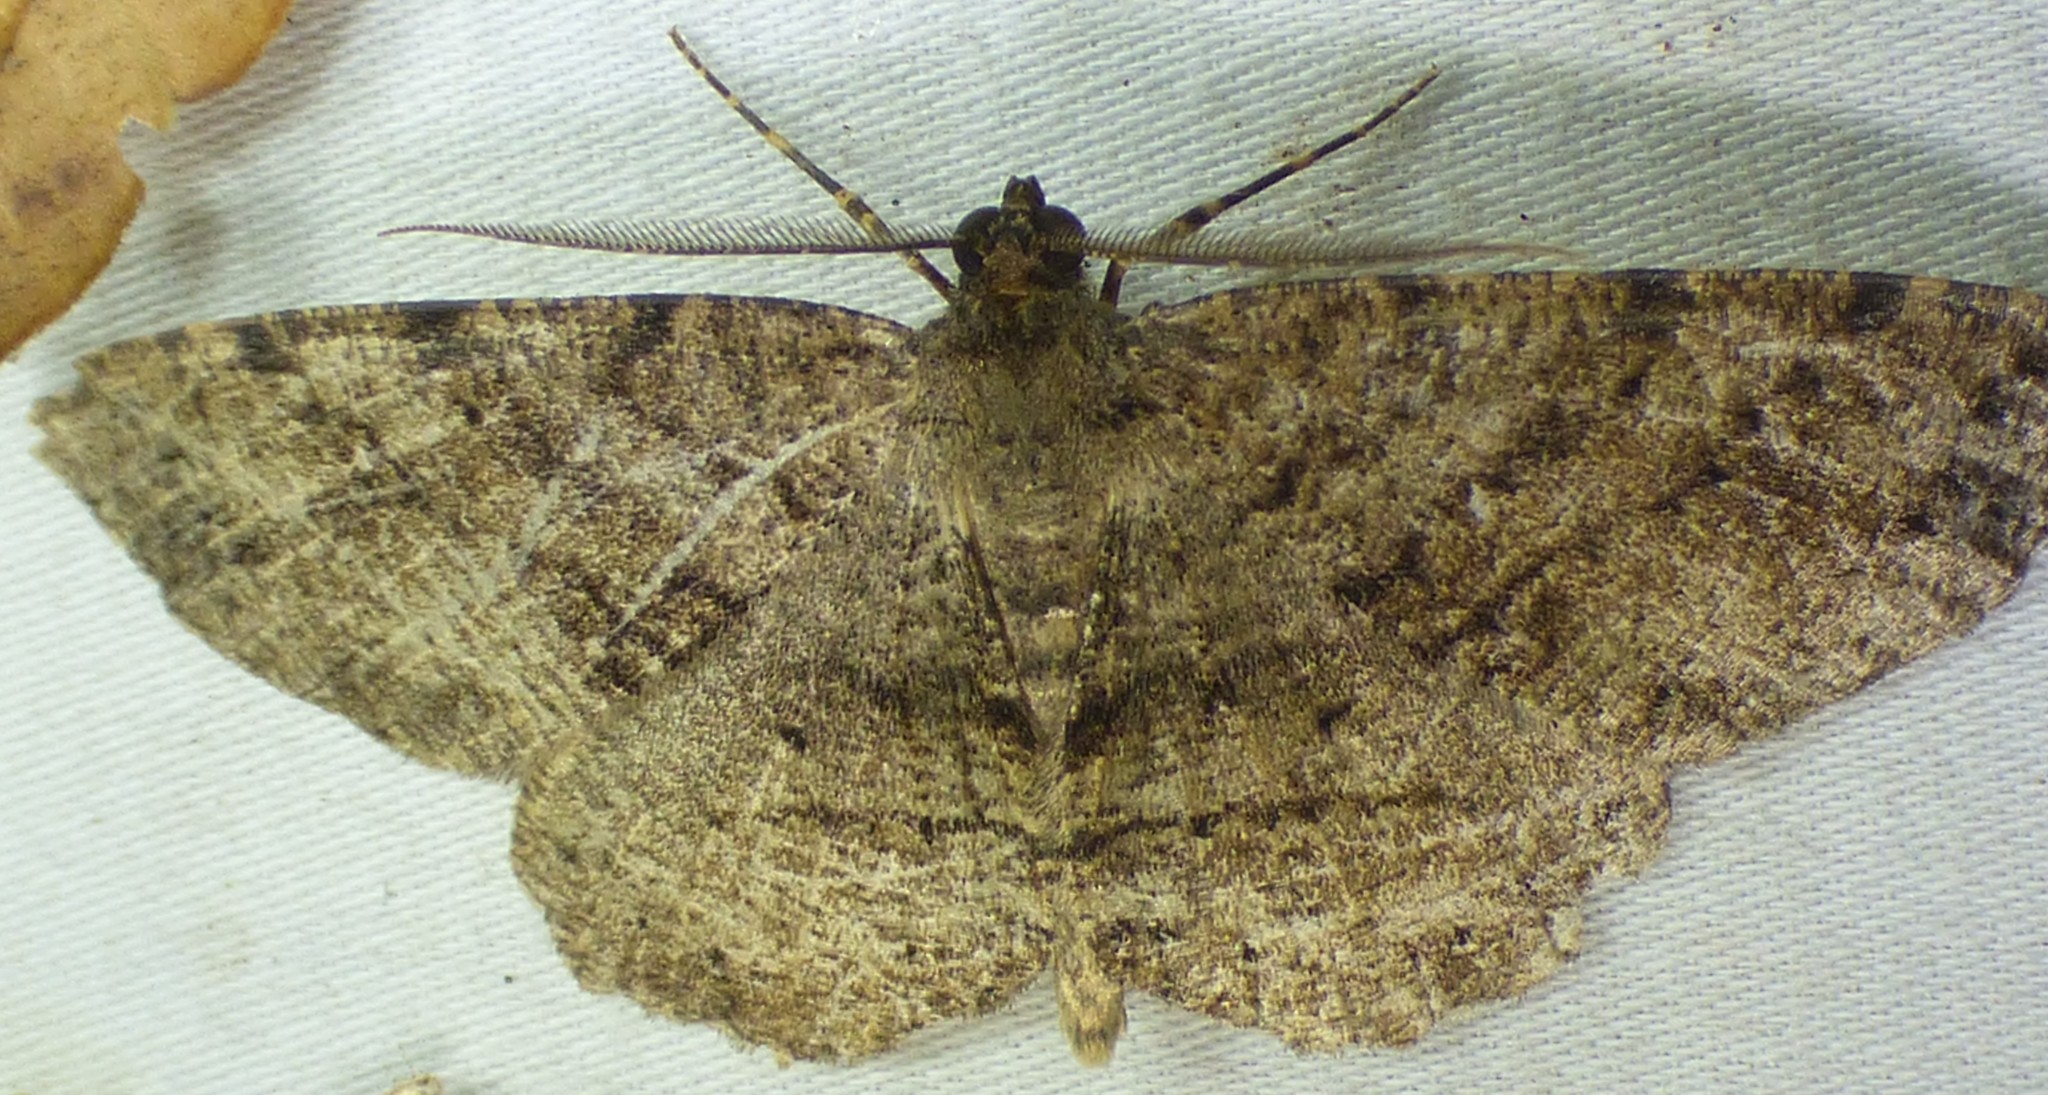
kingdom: Animalia
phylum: Arthropoda
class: Insecta
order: Lepidoptera
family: Geometridae
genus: Melanolophia
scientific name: Melanolophia canadaria
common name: Canadian melanolophia
